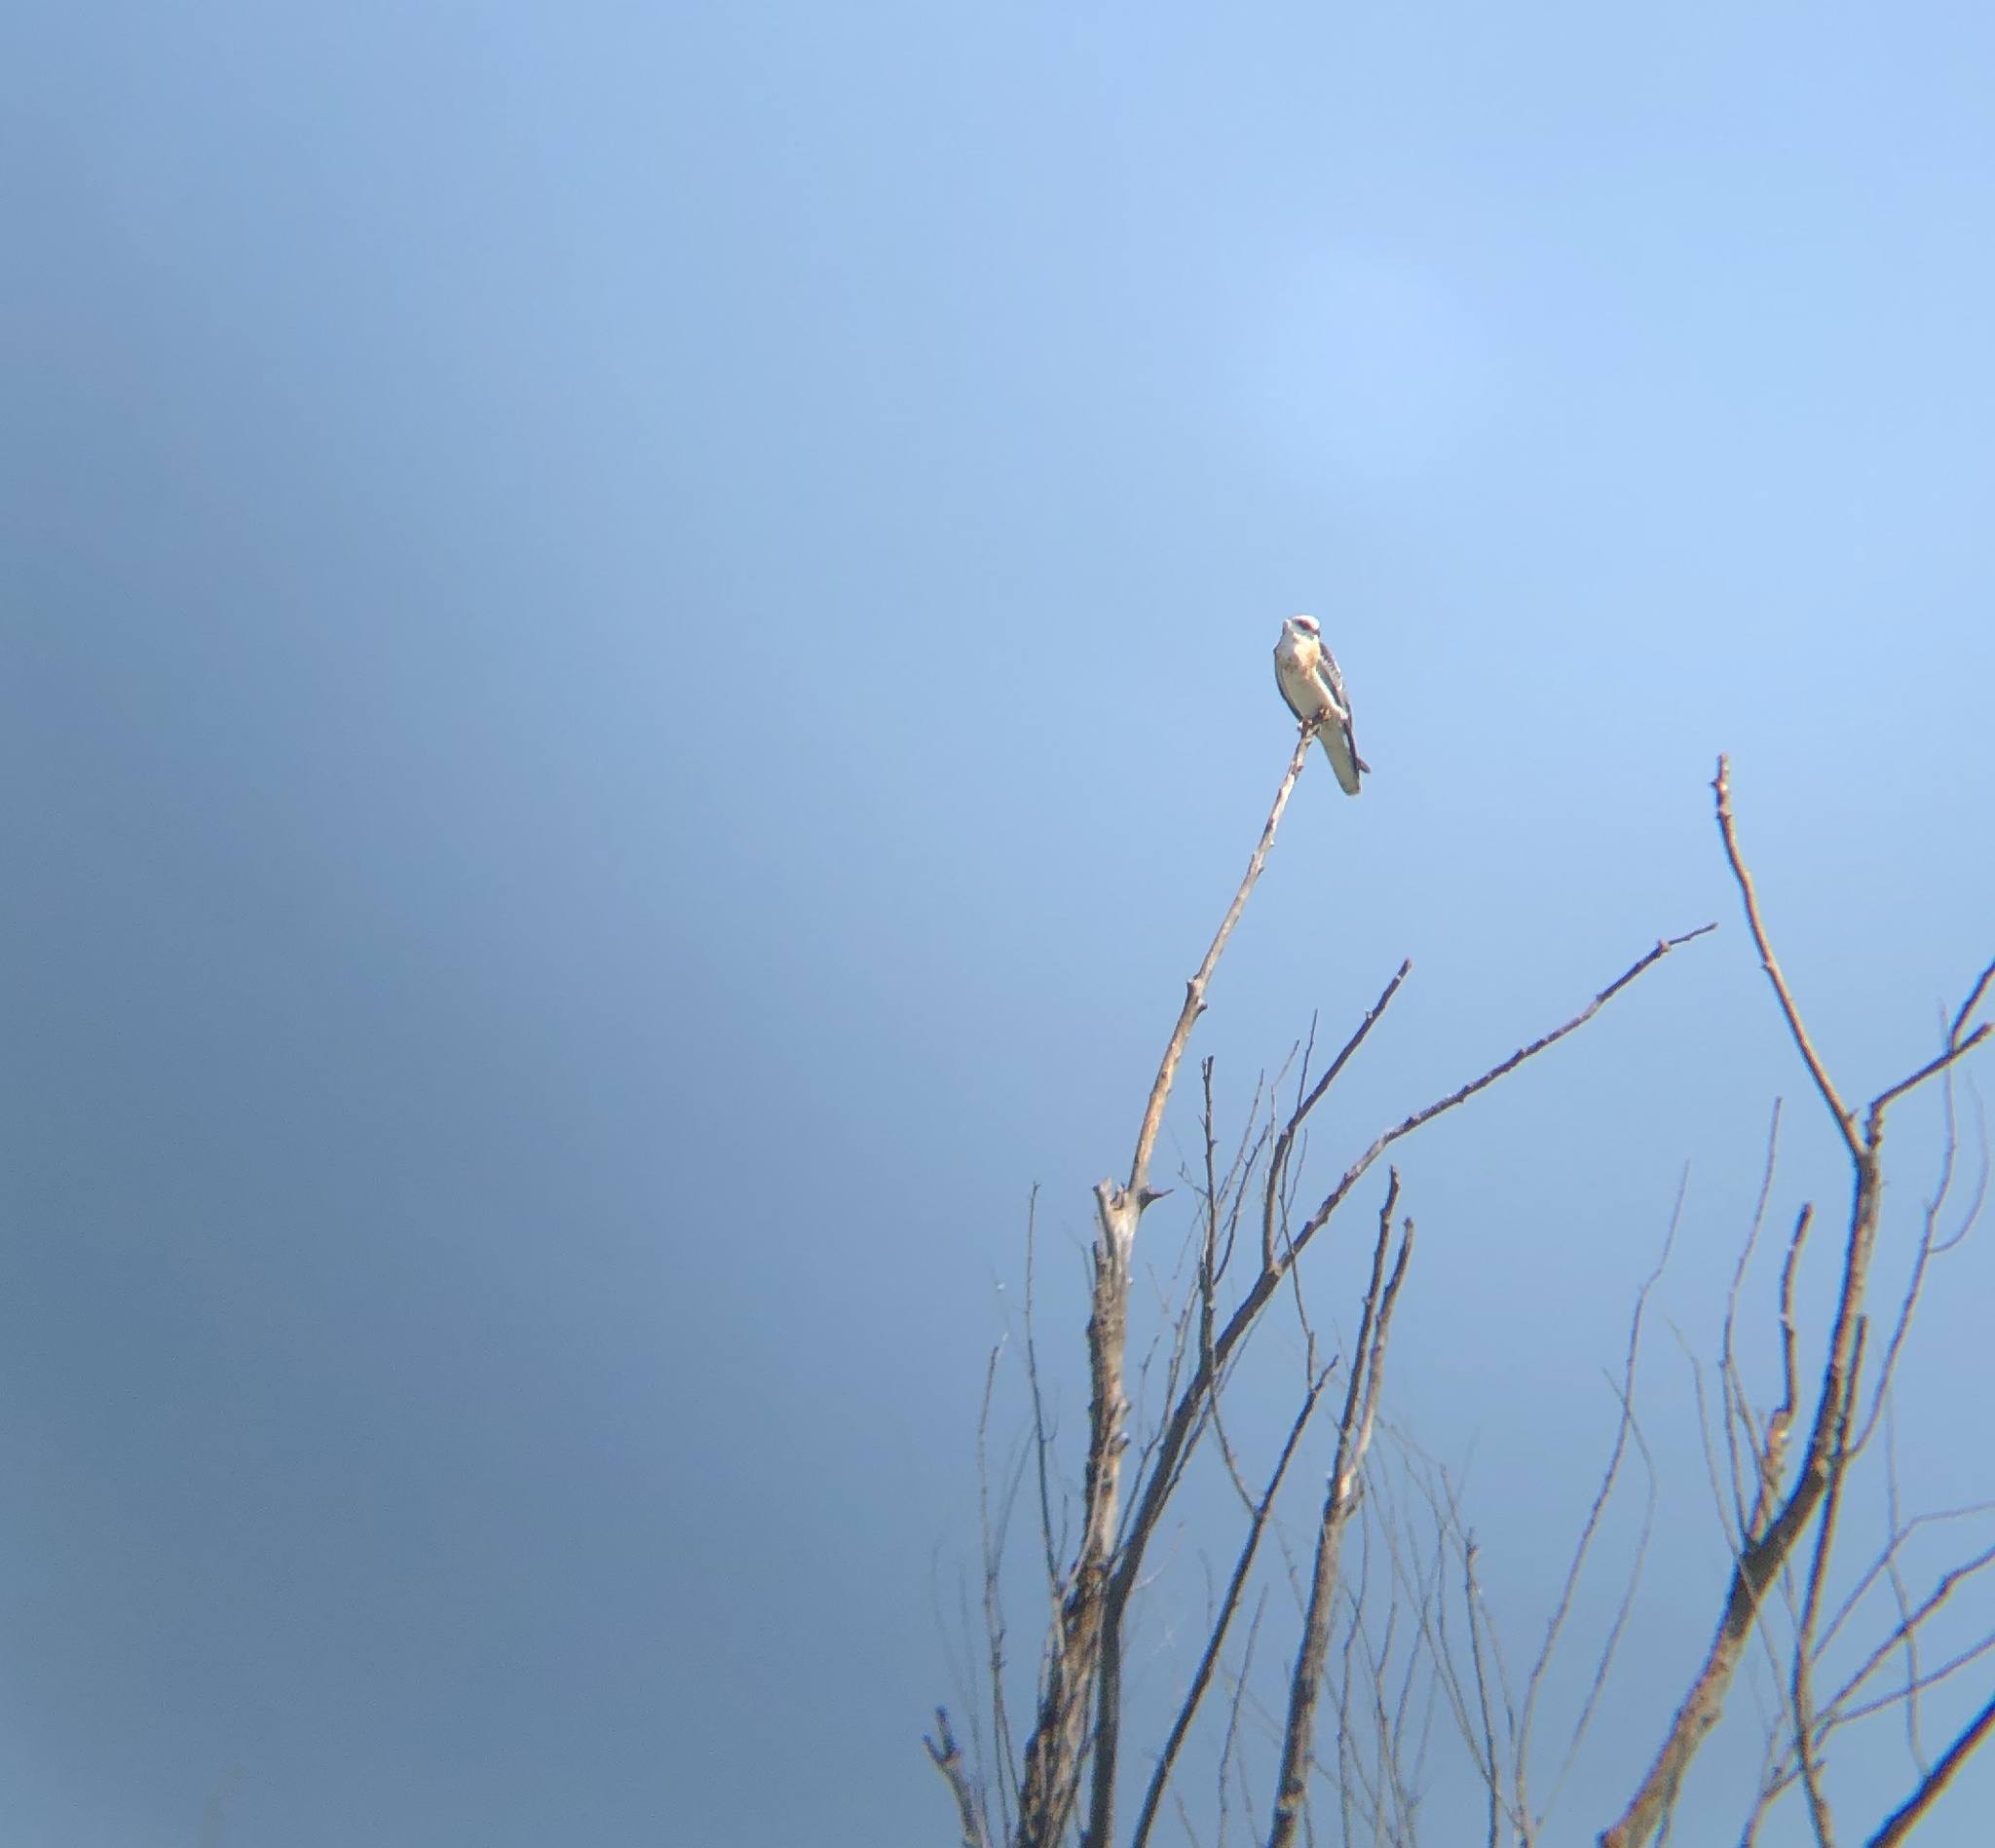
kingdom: Animalia
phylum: Chordata
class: Aves
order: Accipitriformes
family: Accipitridae
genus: Elanus
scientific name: Elanus leucurus
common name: White-tailed kite
